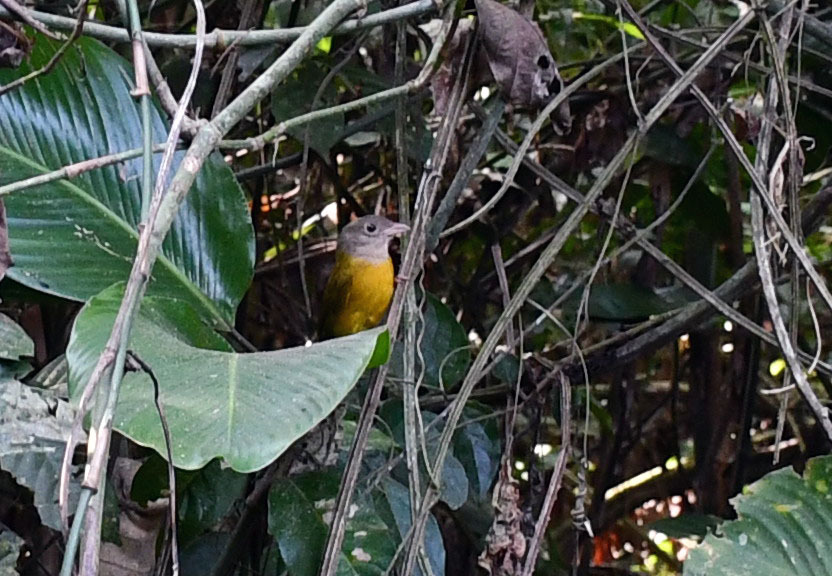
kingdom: Animalia
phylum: Chordata
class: Aves
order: Passeriformes
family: Thraupidae
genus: Eucometis
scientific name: Eucometis penicillata
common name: Grey-headed tanager
